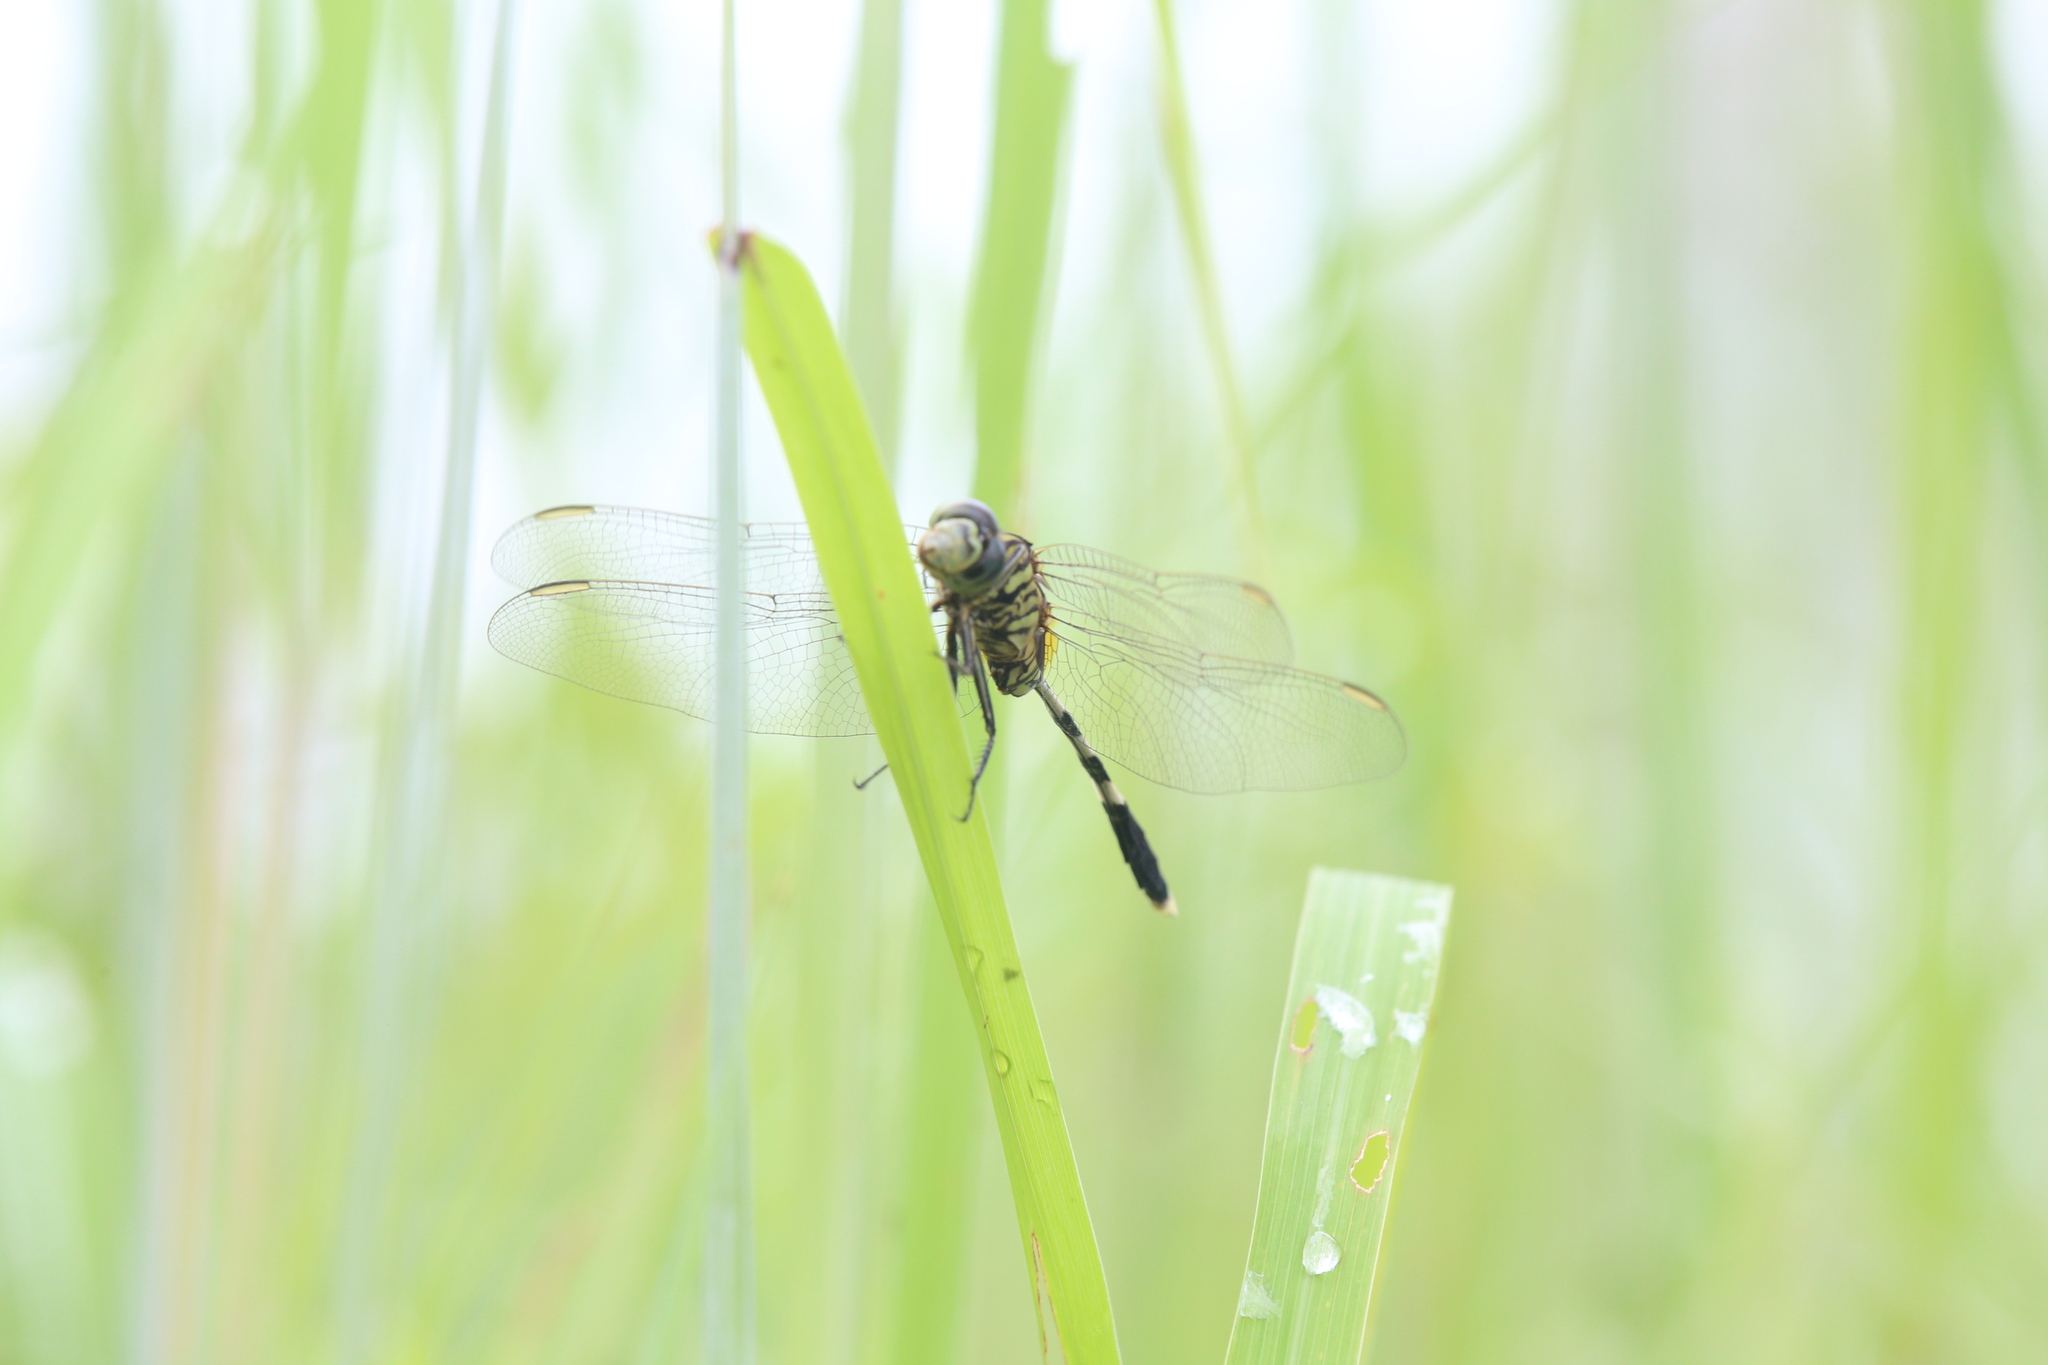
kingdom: Animalia
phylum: Arthropoda
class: Insecta
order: Odonata
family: Libellulidae
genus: Orthetrum
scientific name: Orthetrum sabina
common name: Slender skimmer
